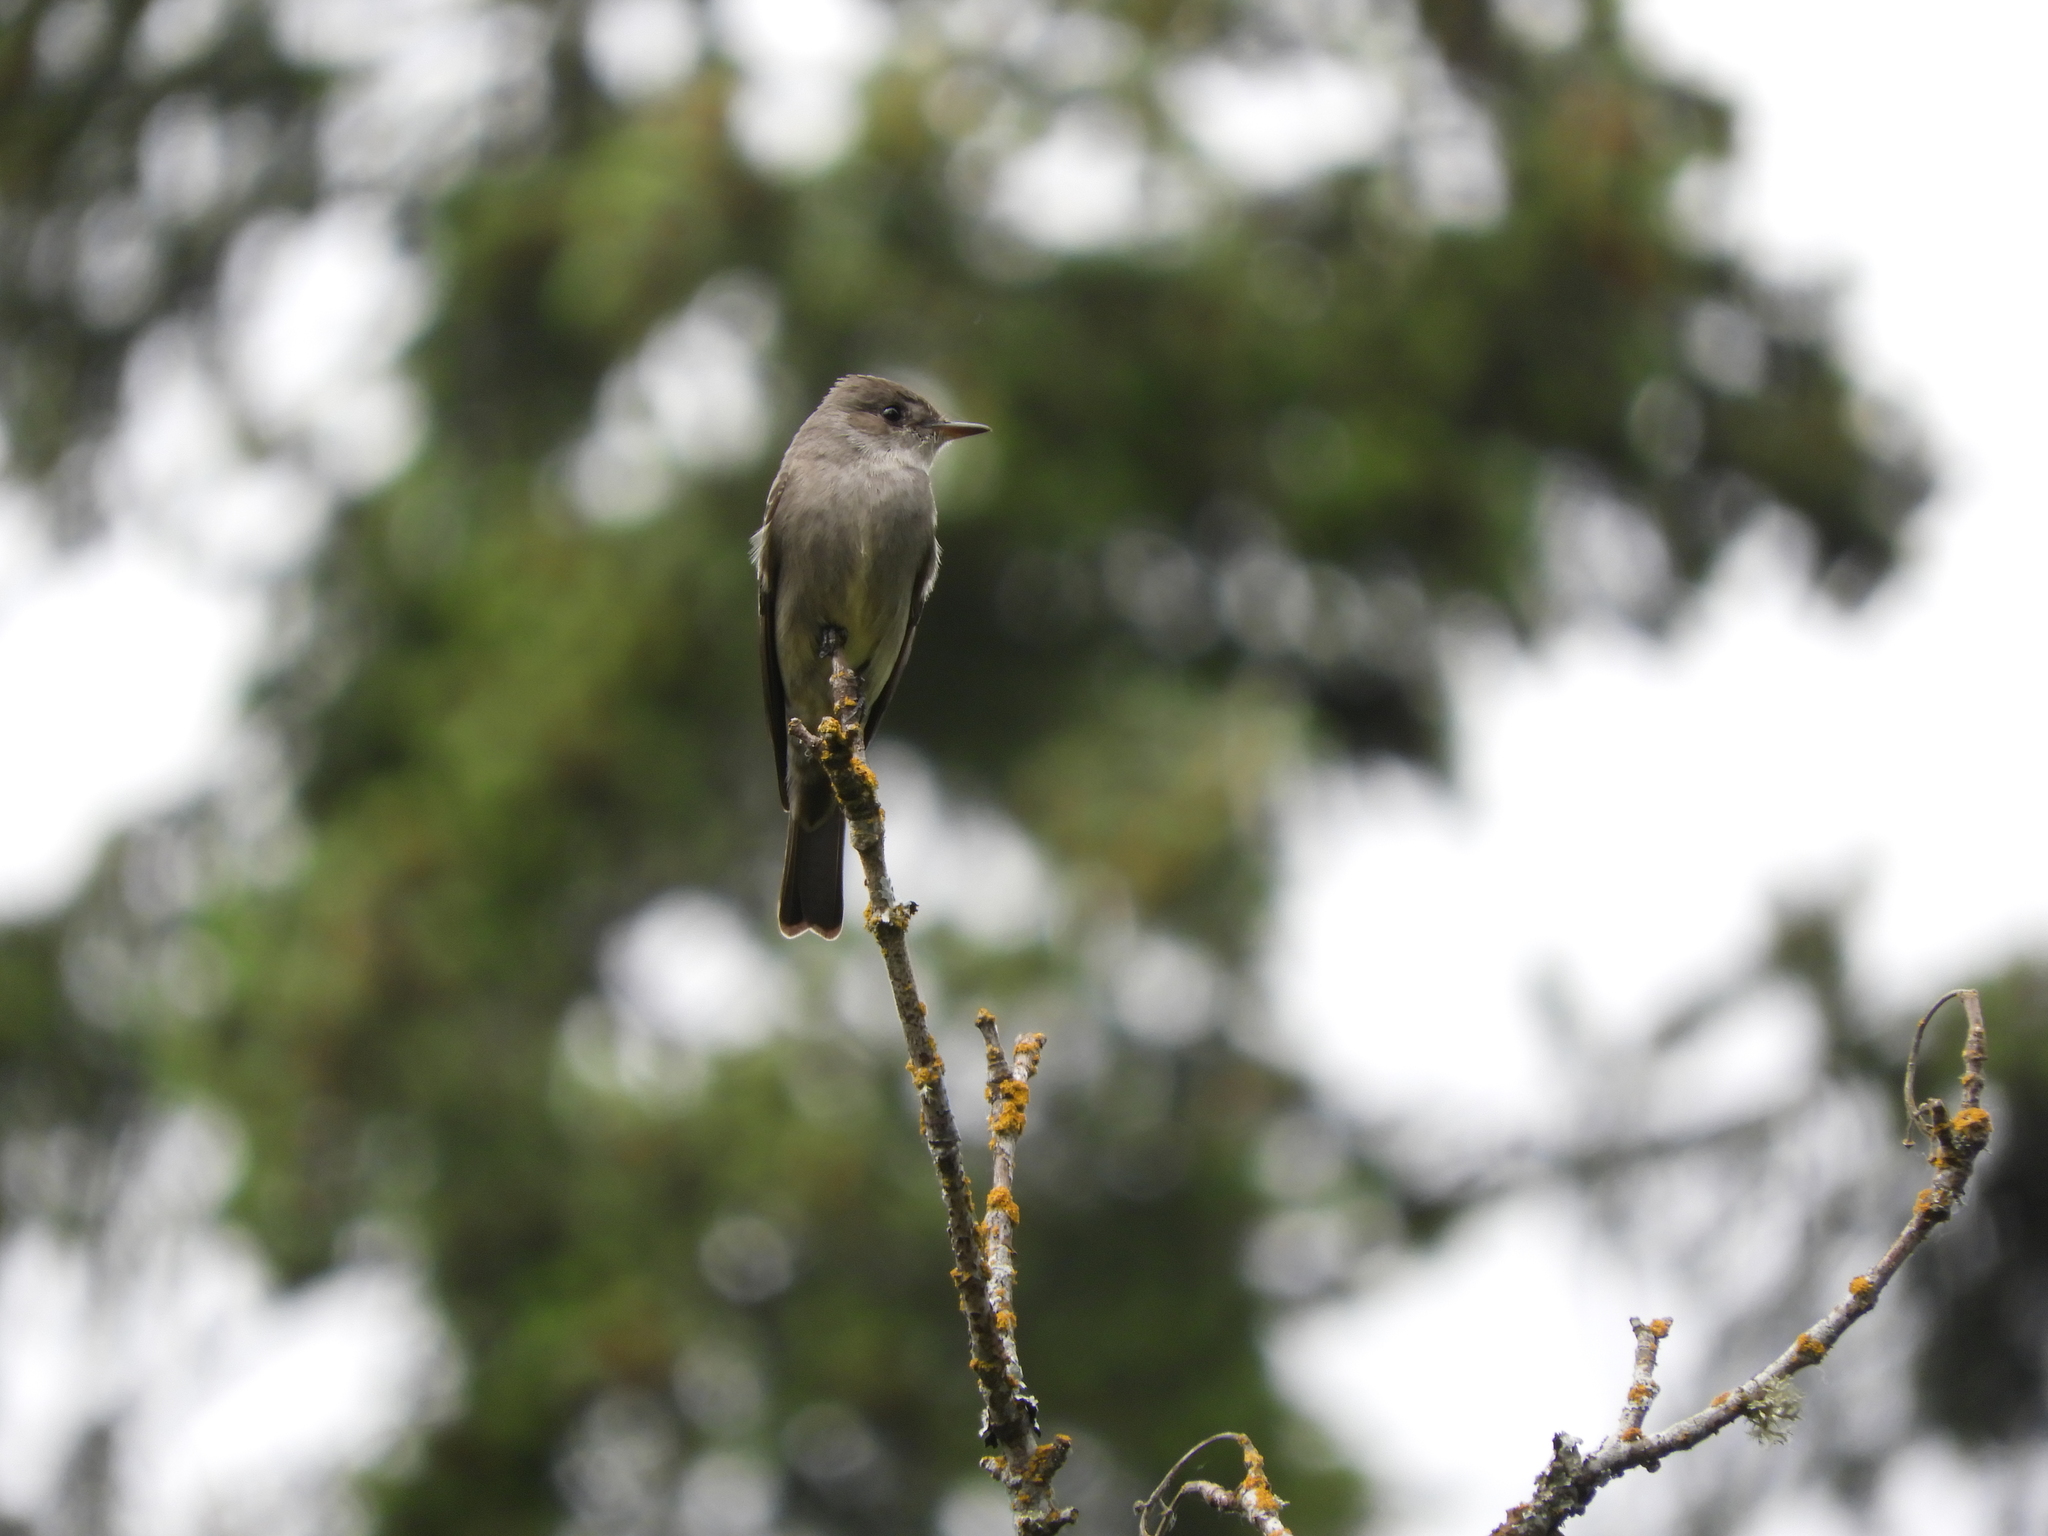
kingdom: Animalia
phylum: Chordata
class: Aves
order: Passeriformes
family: Tyrannidae
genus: Contopus
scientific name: Contopus sordidulus
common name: Western wood-pewee
